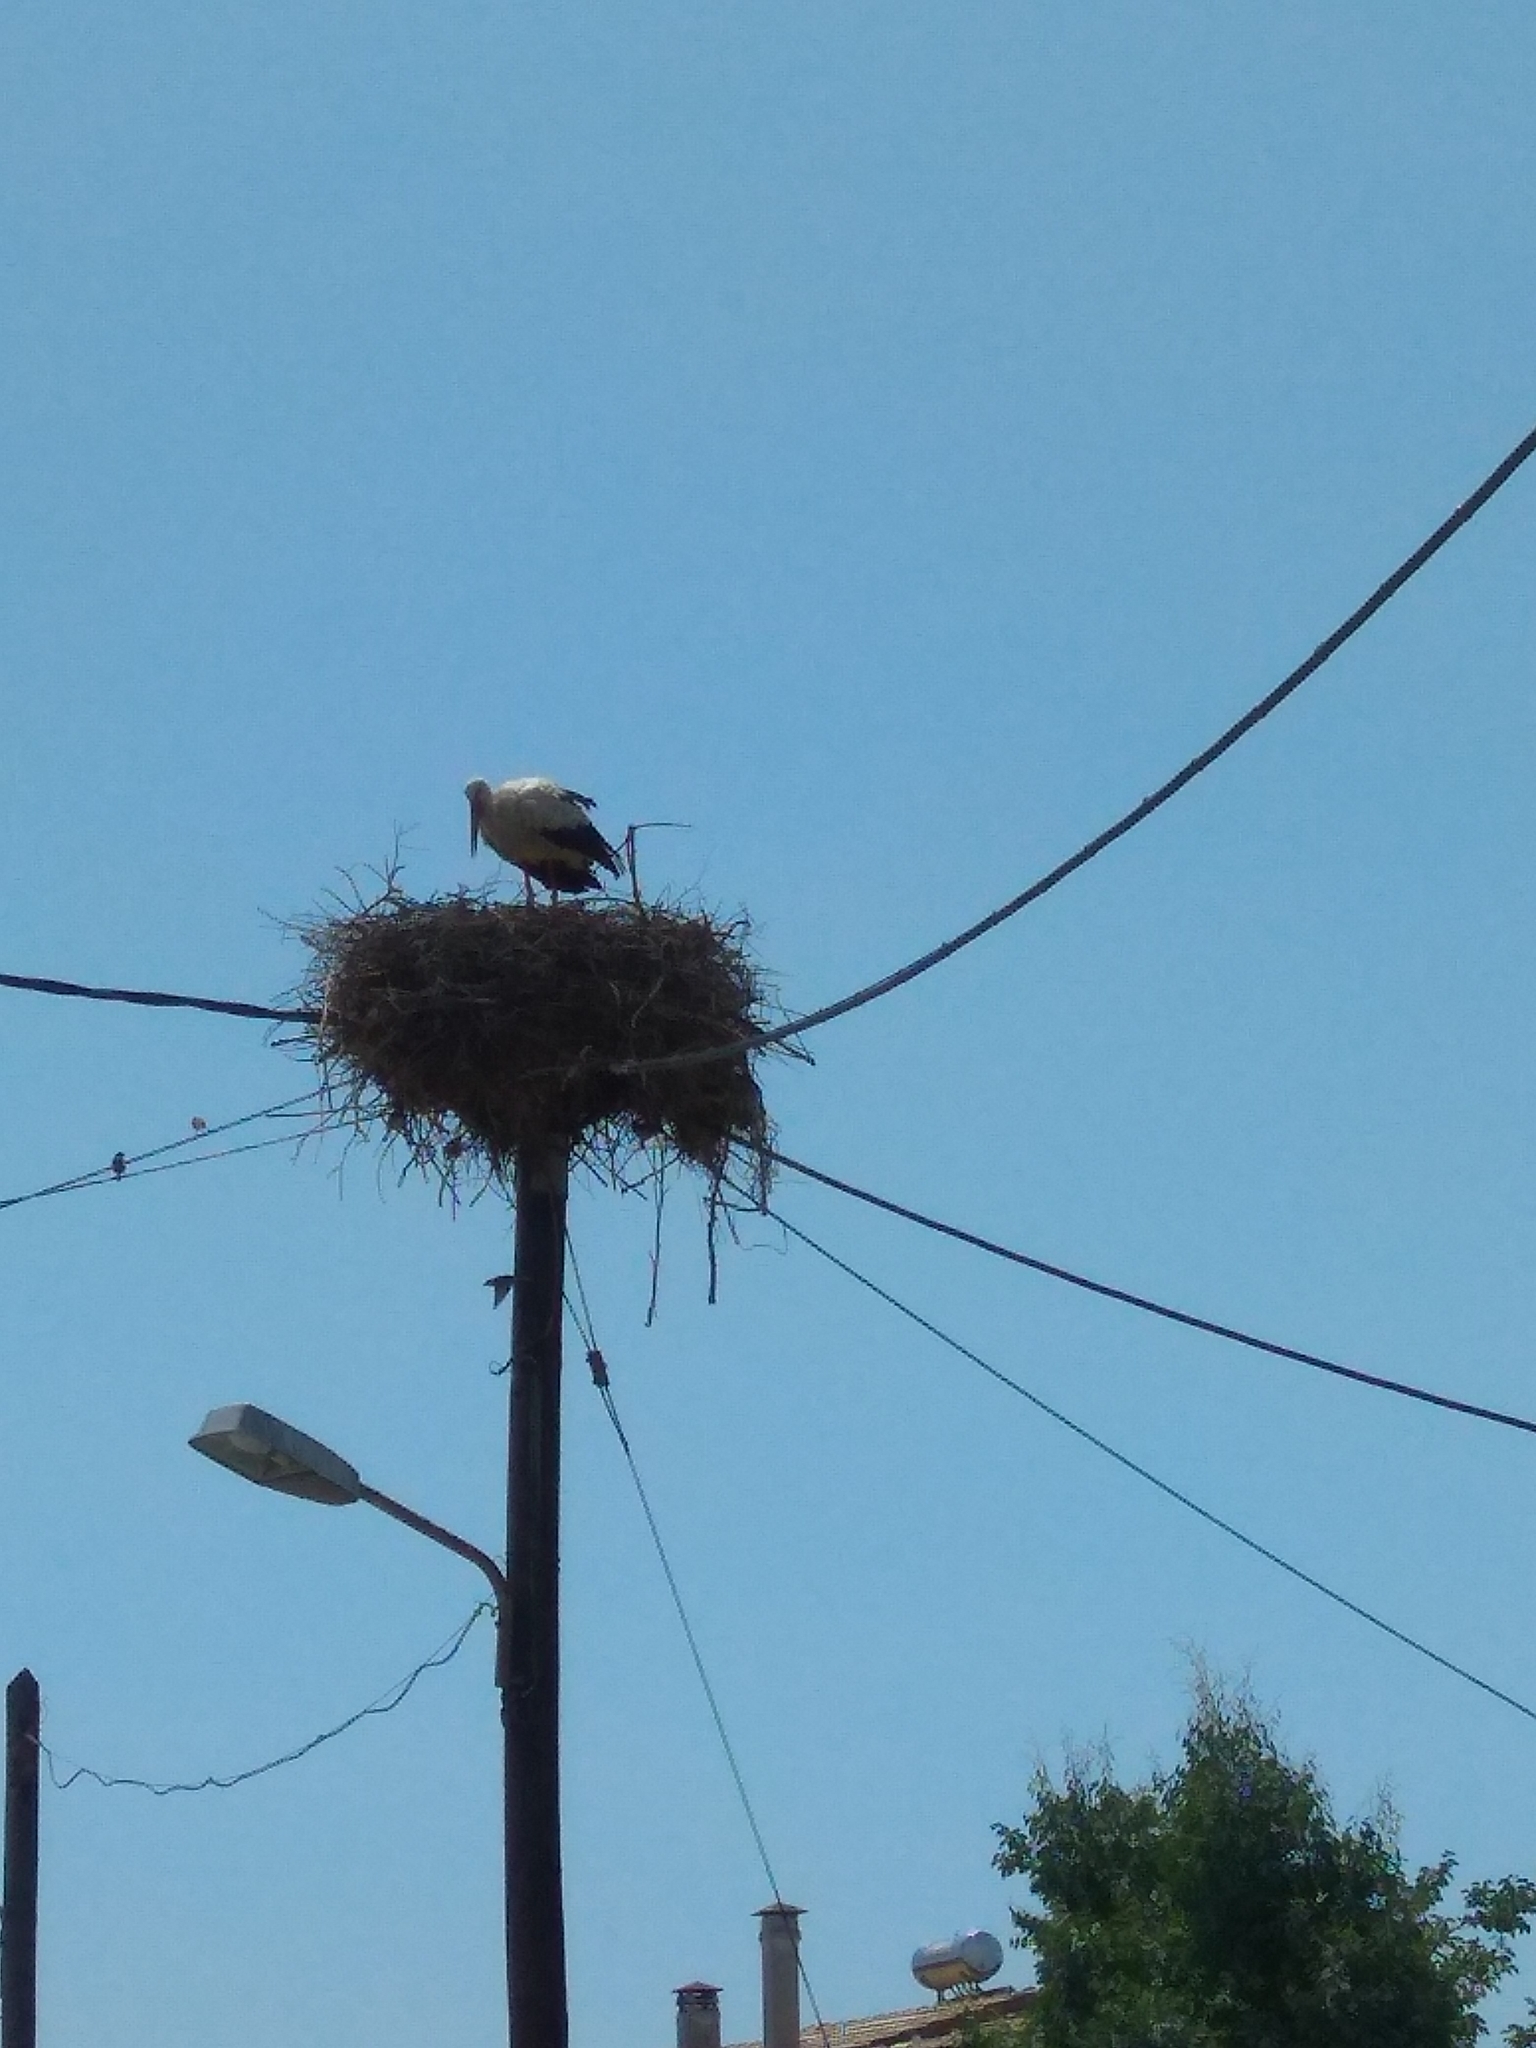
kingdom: Animalia
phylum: Chordata
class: Aves
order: Ciconiiformes
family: Ciconiidae
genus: Ciconia
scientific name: Ciconia ciconia
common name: White stork
